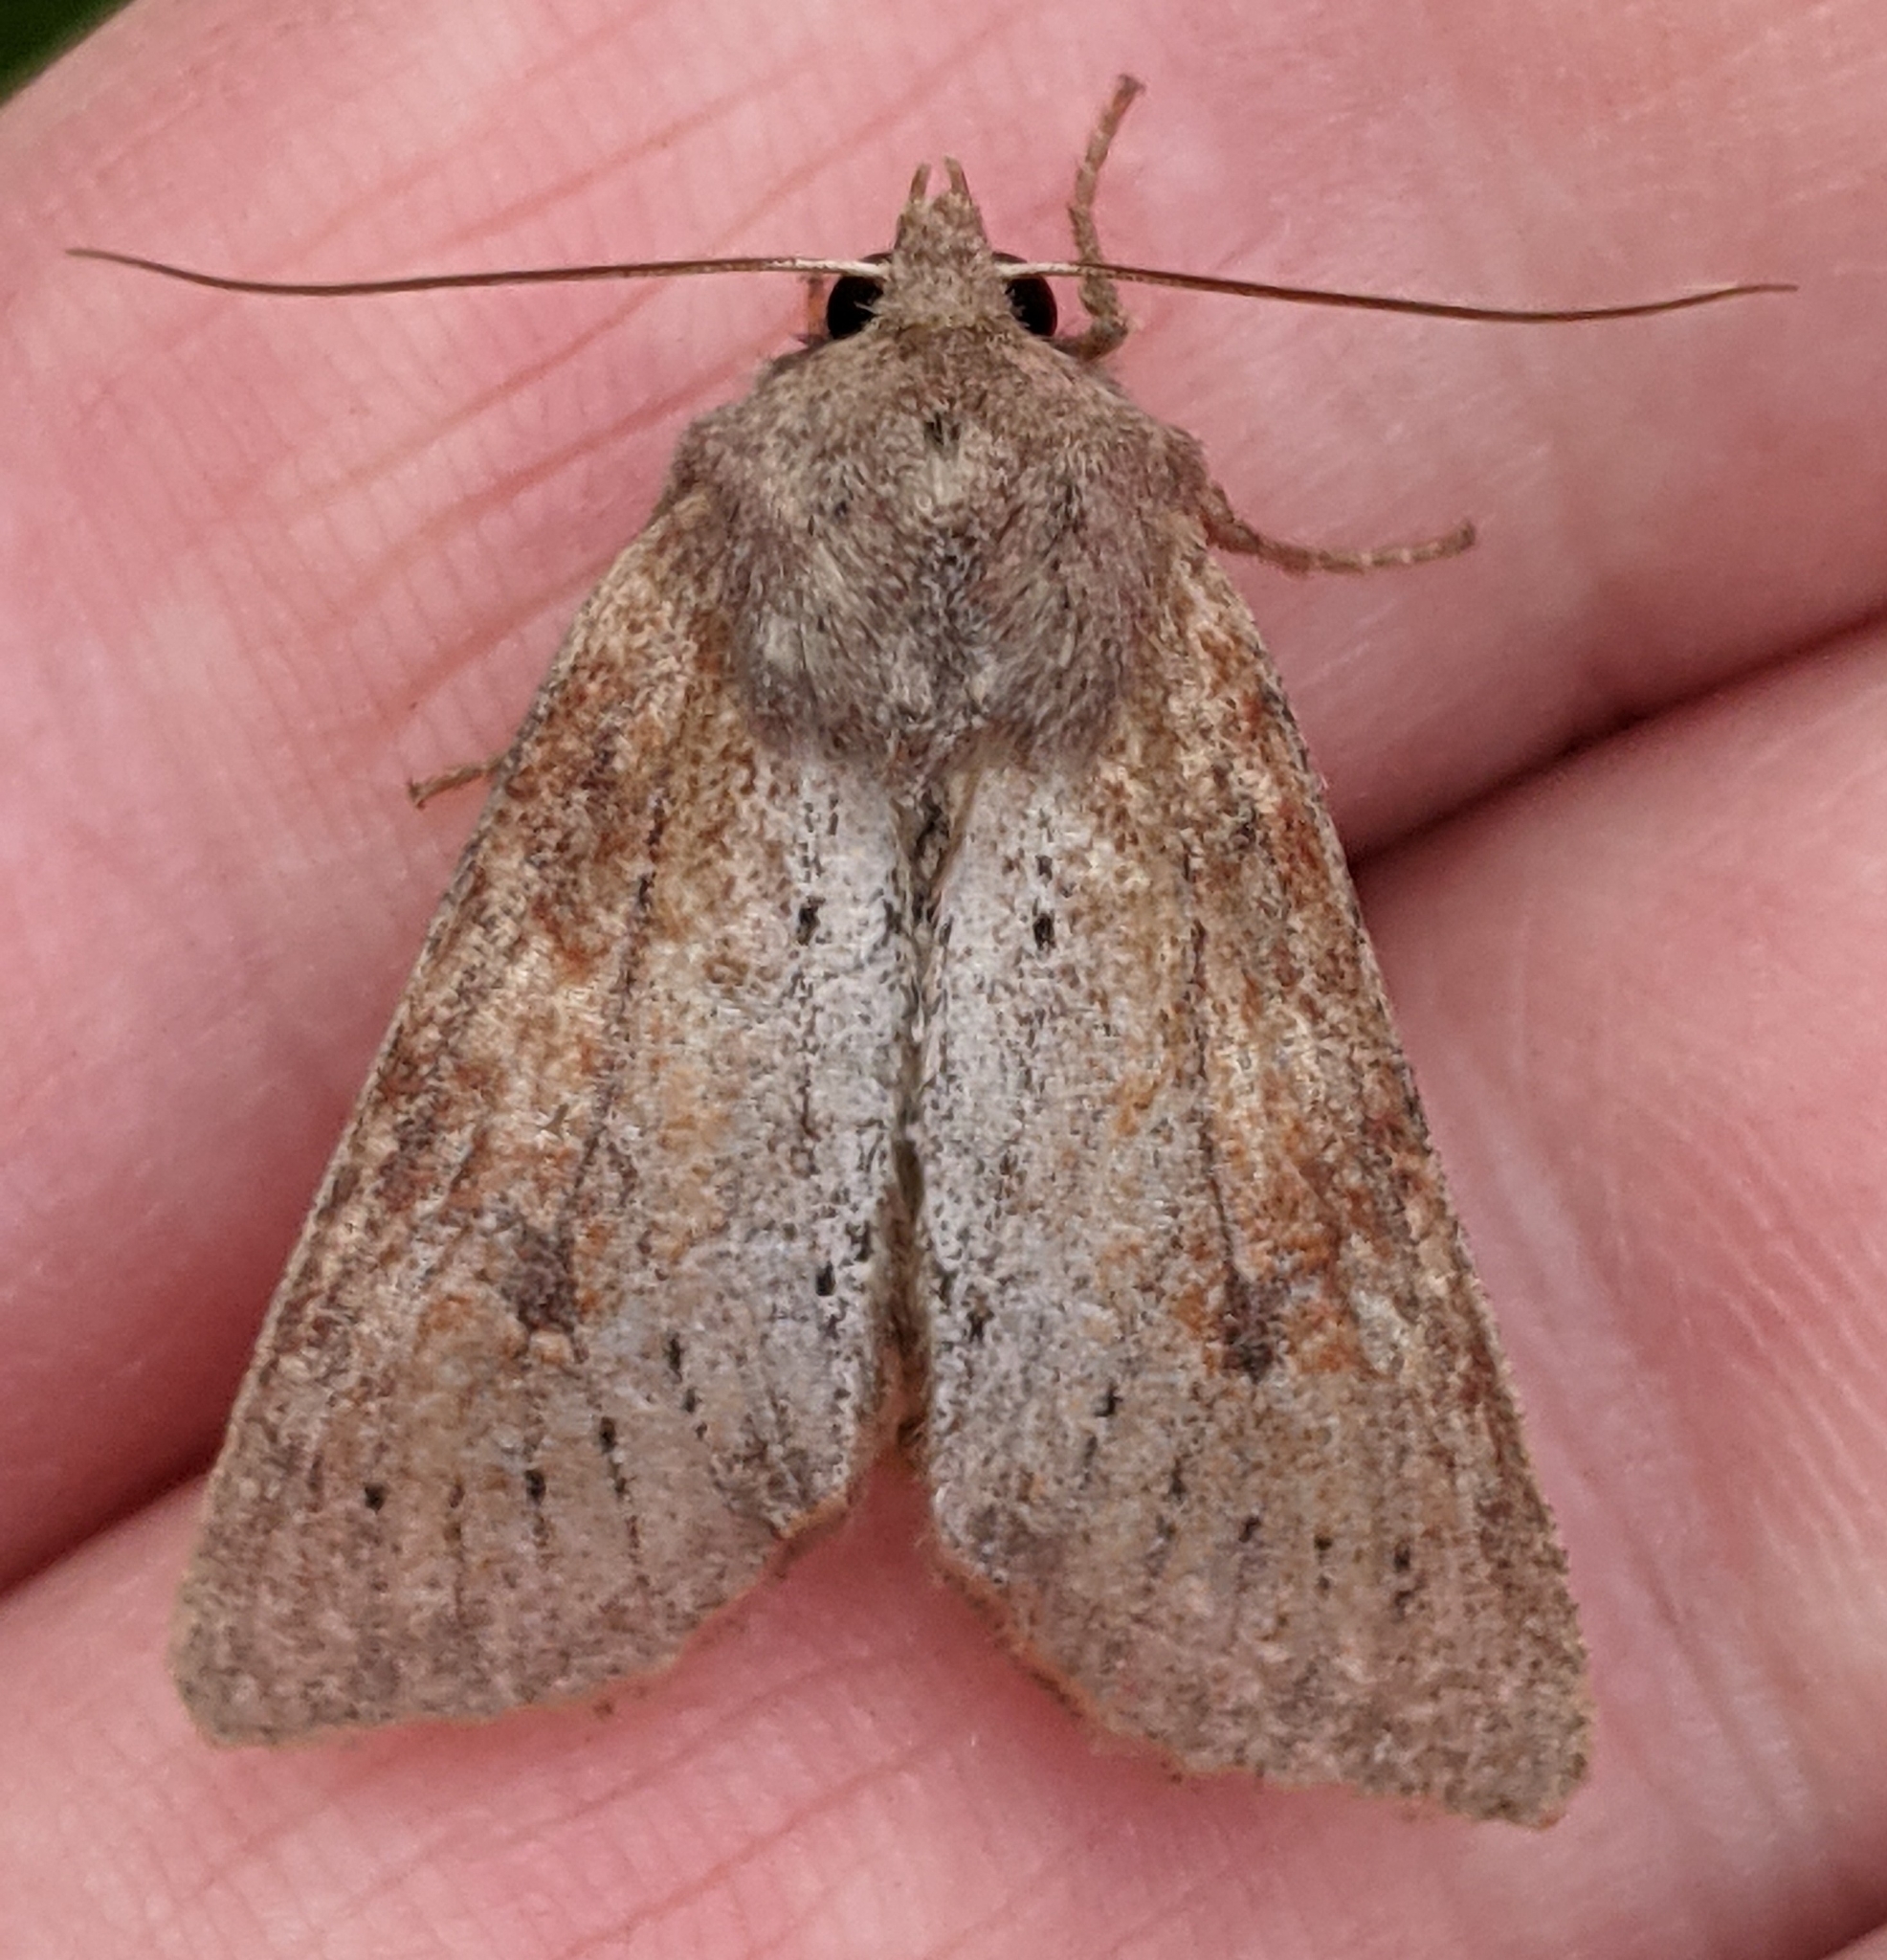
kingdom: Animalia
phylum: Arthropoda
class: Insecta
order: Lepidoptera
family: Noctuidae
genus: Apamea
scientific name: Apamea alia
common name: Fox apamea
